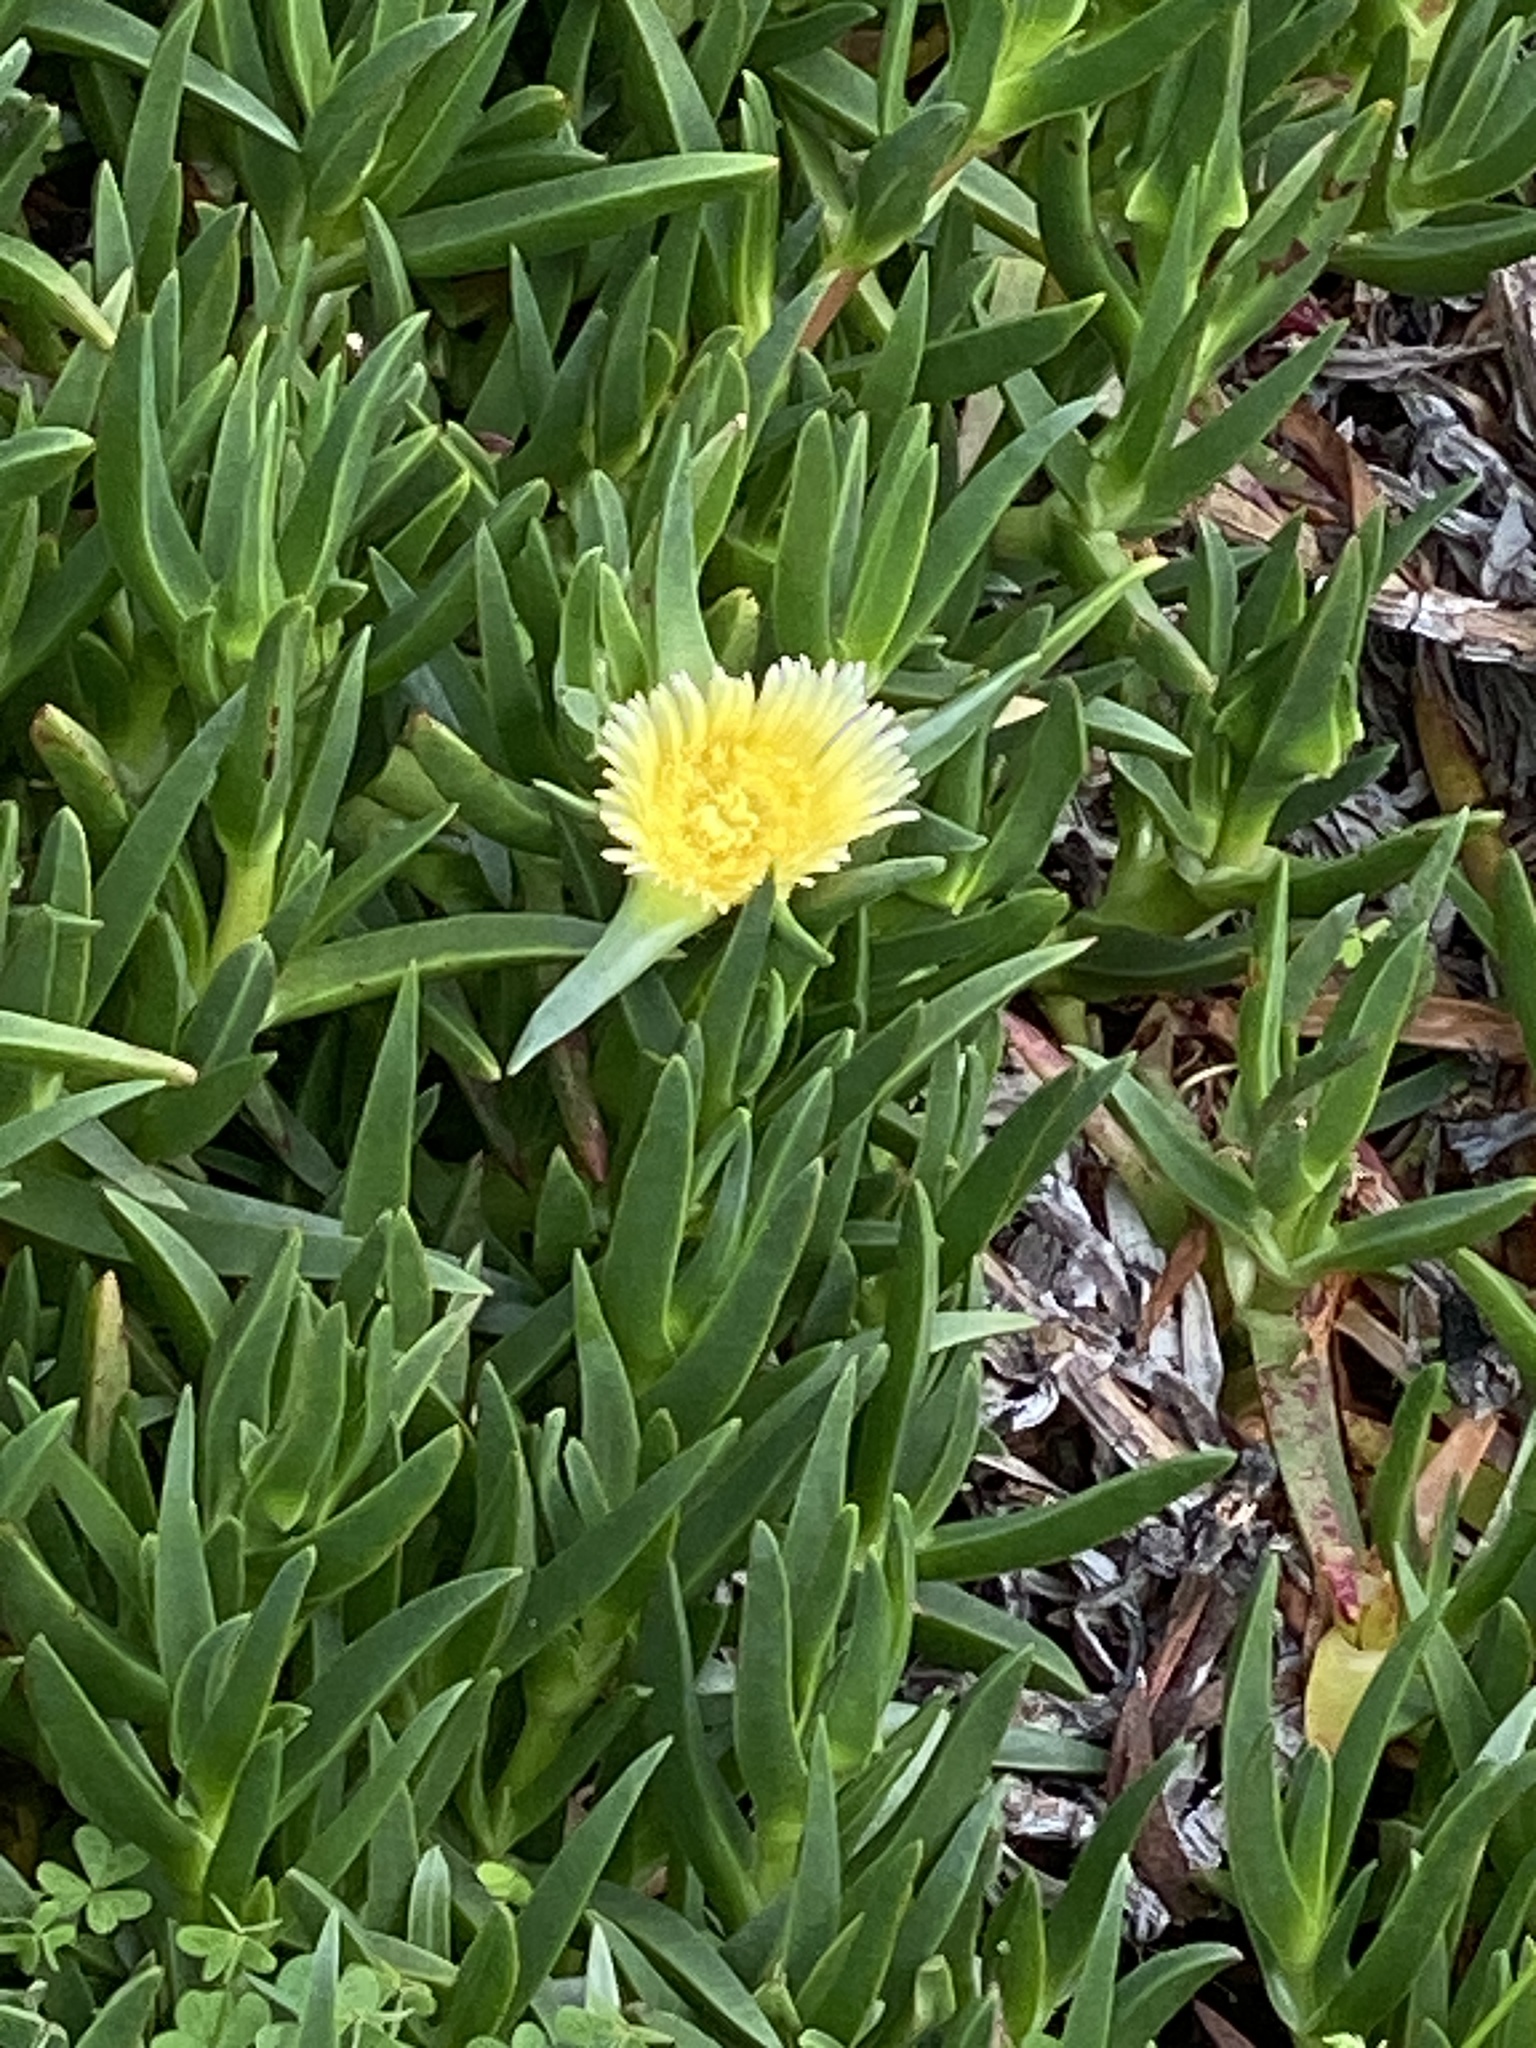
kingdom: Plantae
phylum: Tracheophyta
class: Magnoliopsida
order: Caryophyllales
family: Aizoaceae
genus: Carpobrotus
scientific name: Carpobrotus edulis
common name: Hottentot-fig
